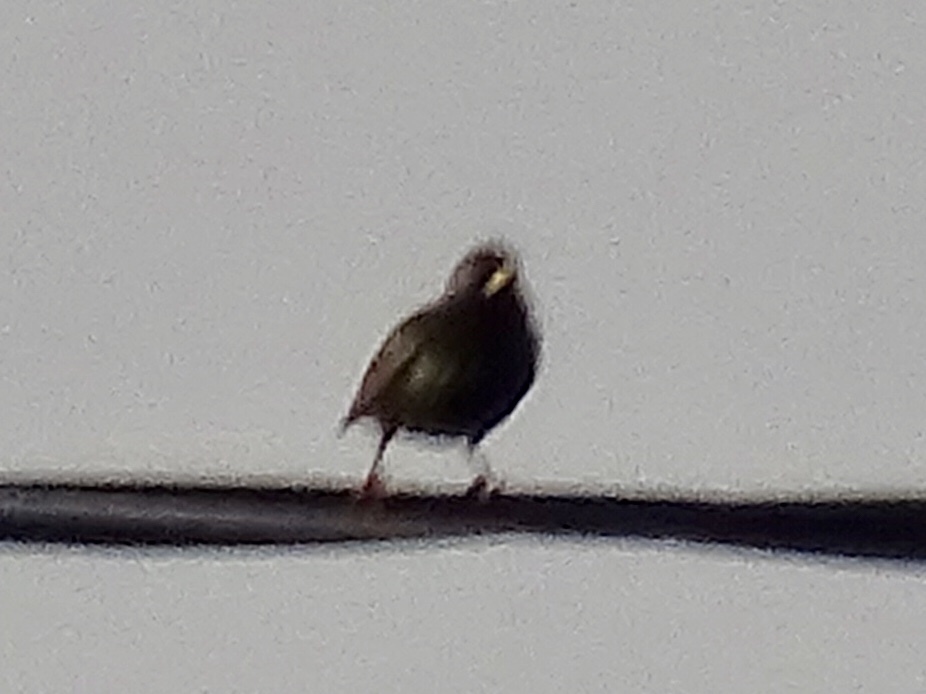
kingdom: Animalia
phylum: Chordata
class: Aves
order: Passeriformes
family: Sturnidae
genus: Sturnus
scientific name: Sturnus vulgaris
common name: Common starling
